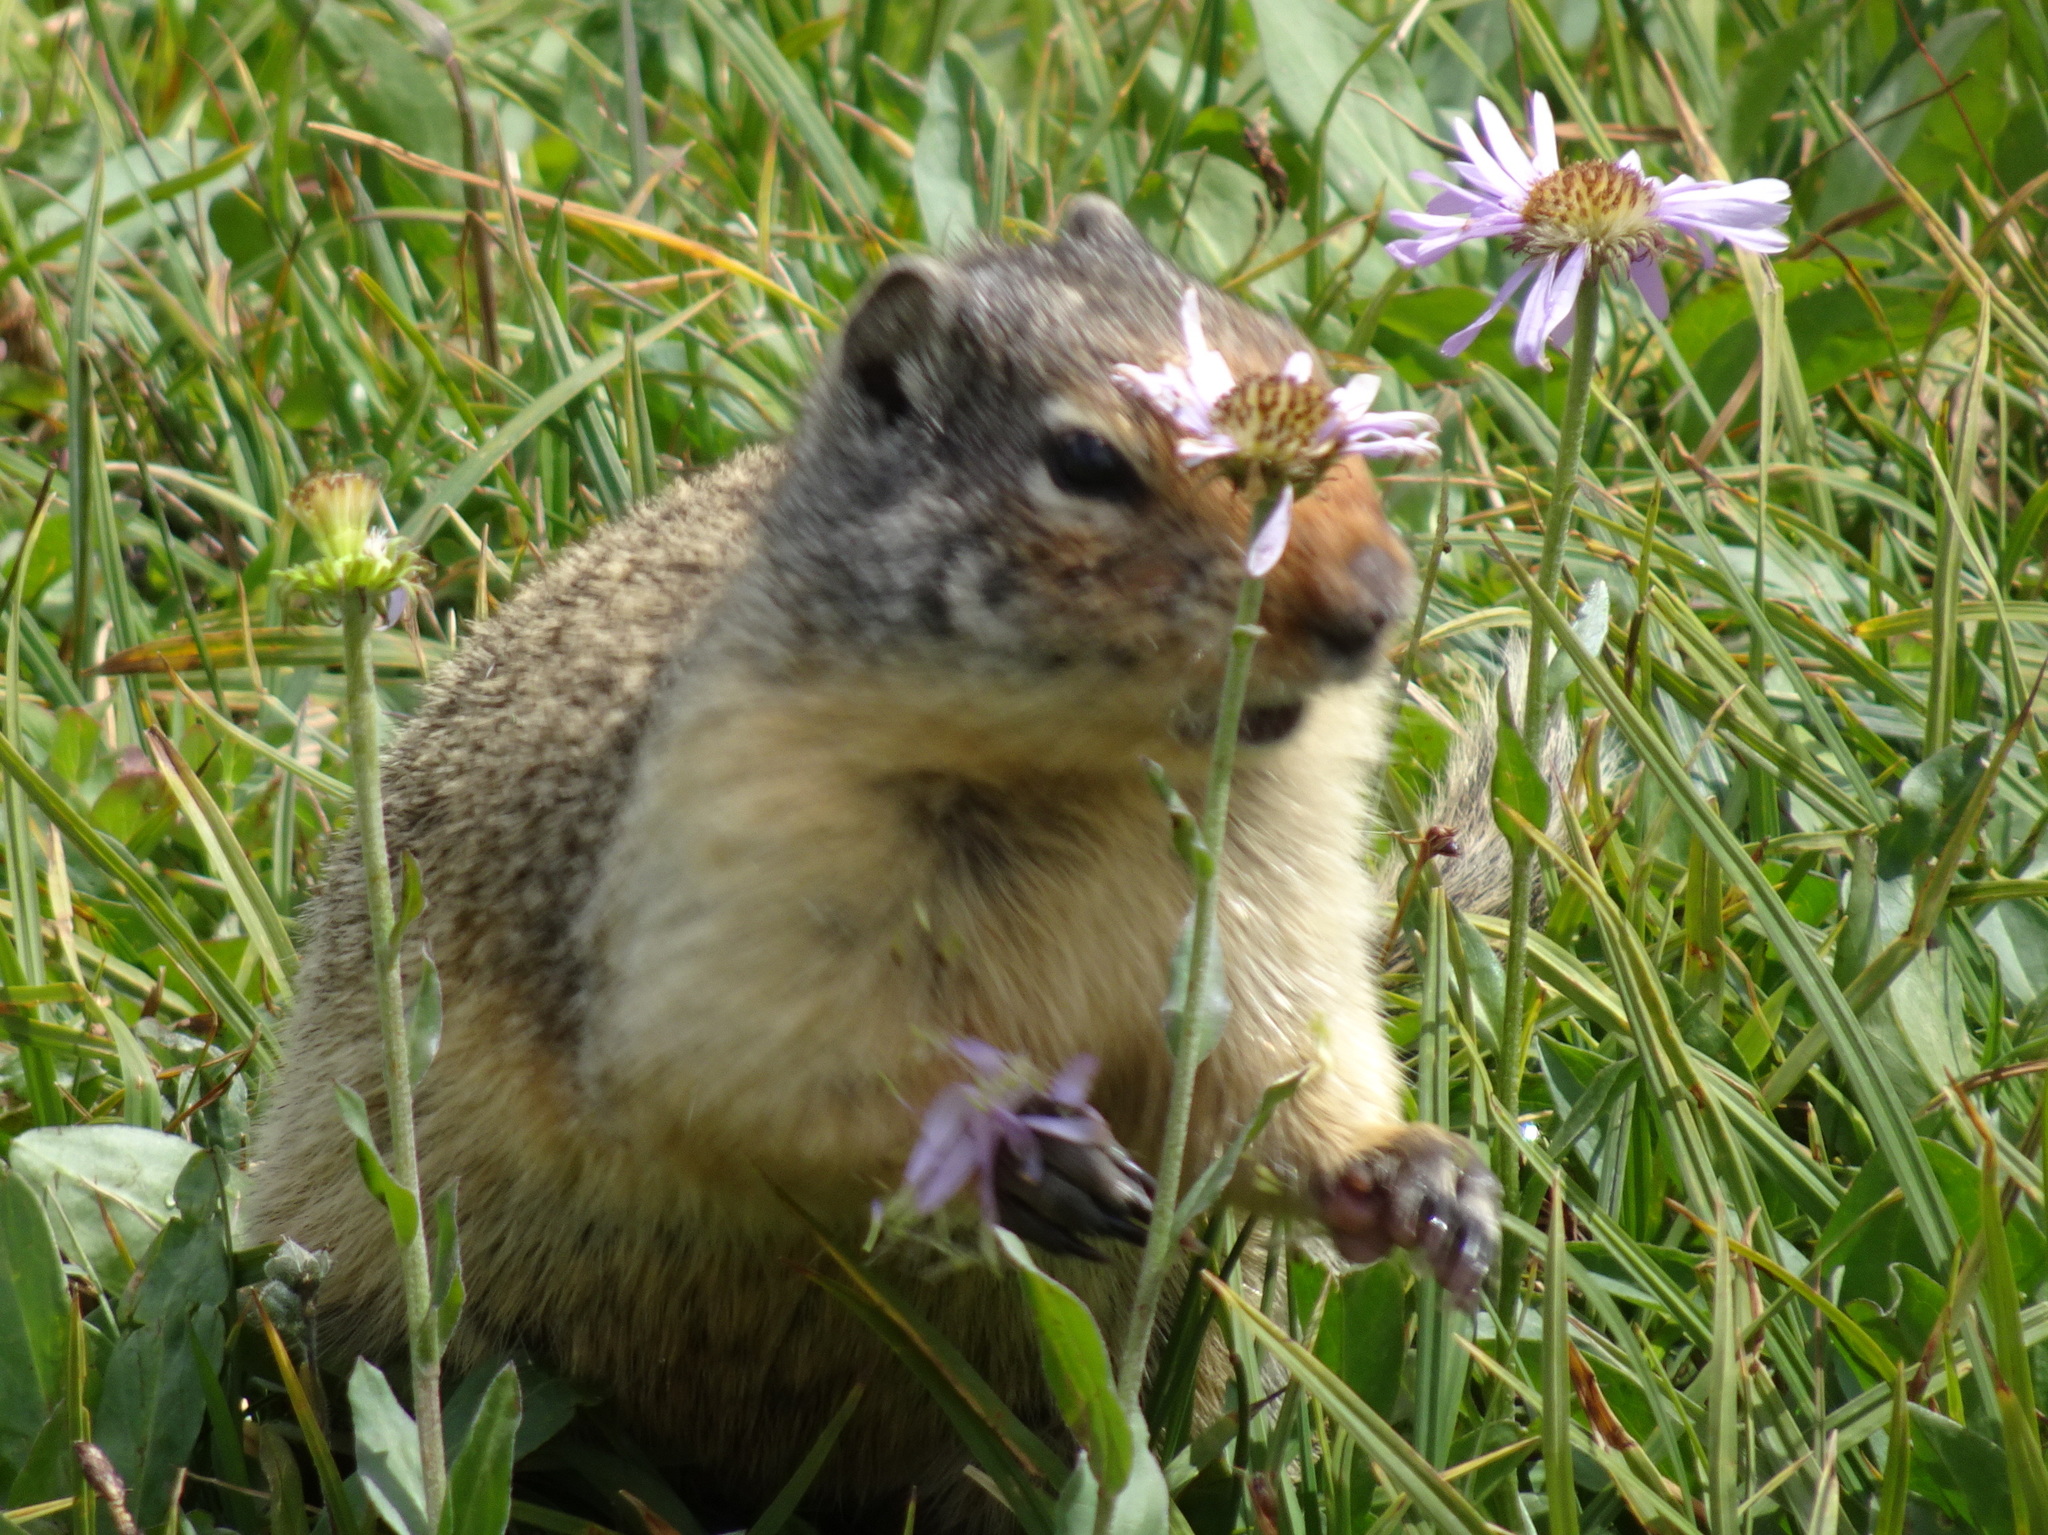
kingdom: Animalia
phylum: Chordata
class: Mammalia
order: Rodentia
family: Sciuridae
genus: Urocitellus
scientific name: Urocitellus columbianus
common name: Columbian ground squirrel
